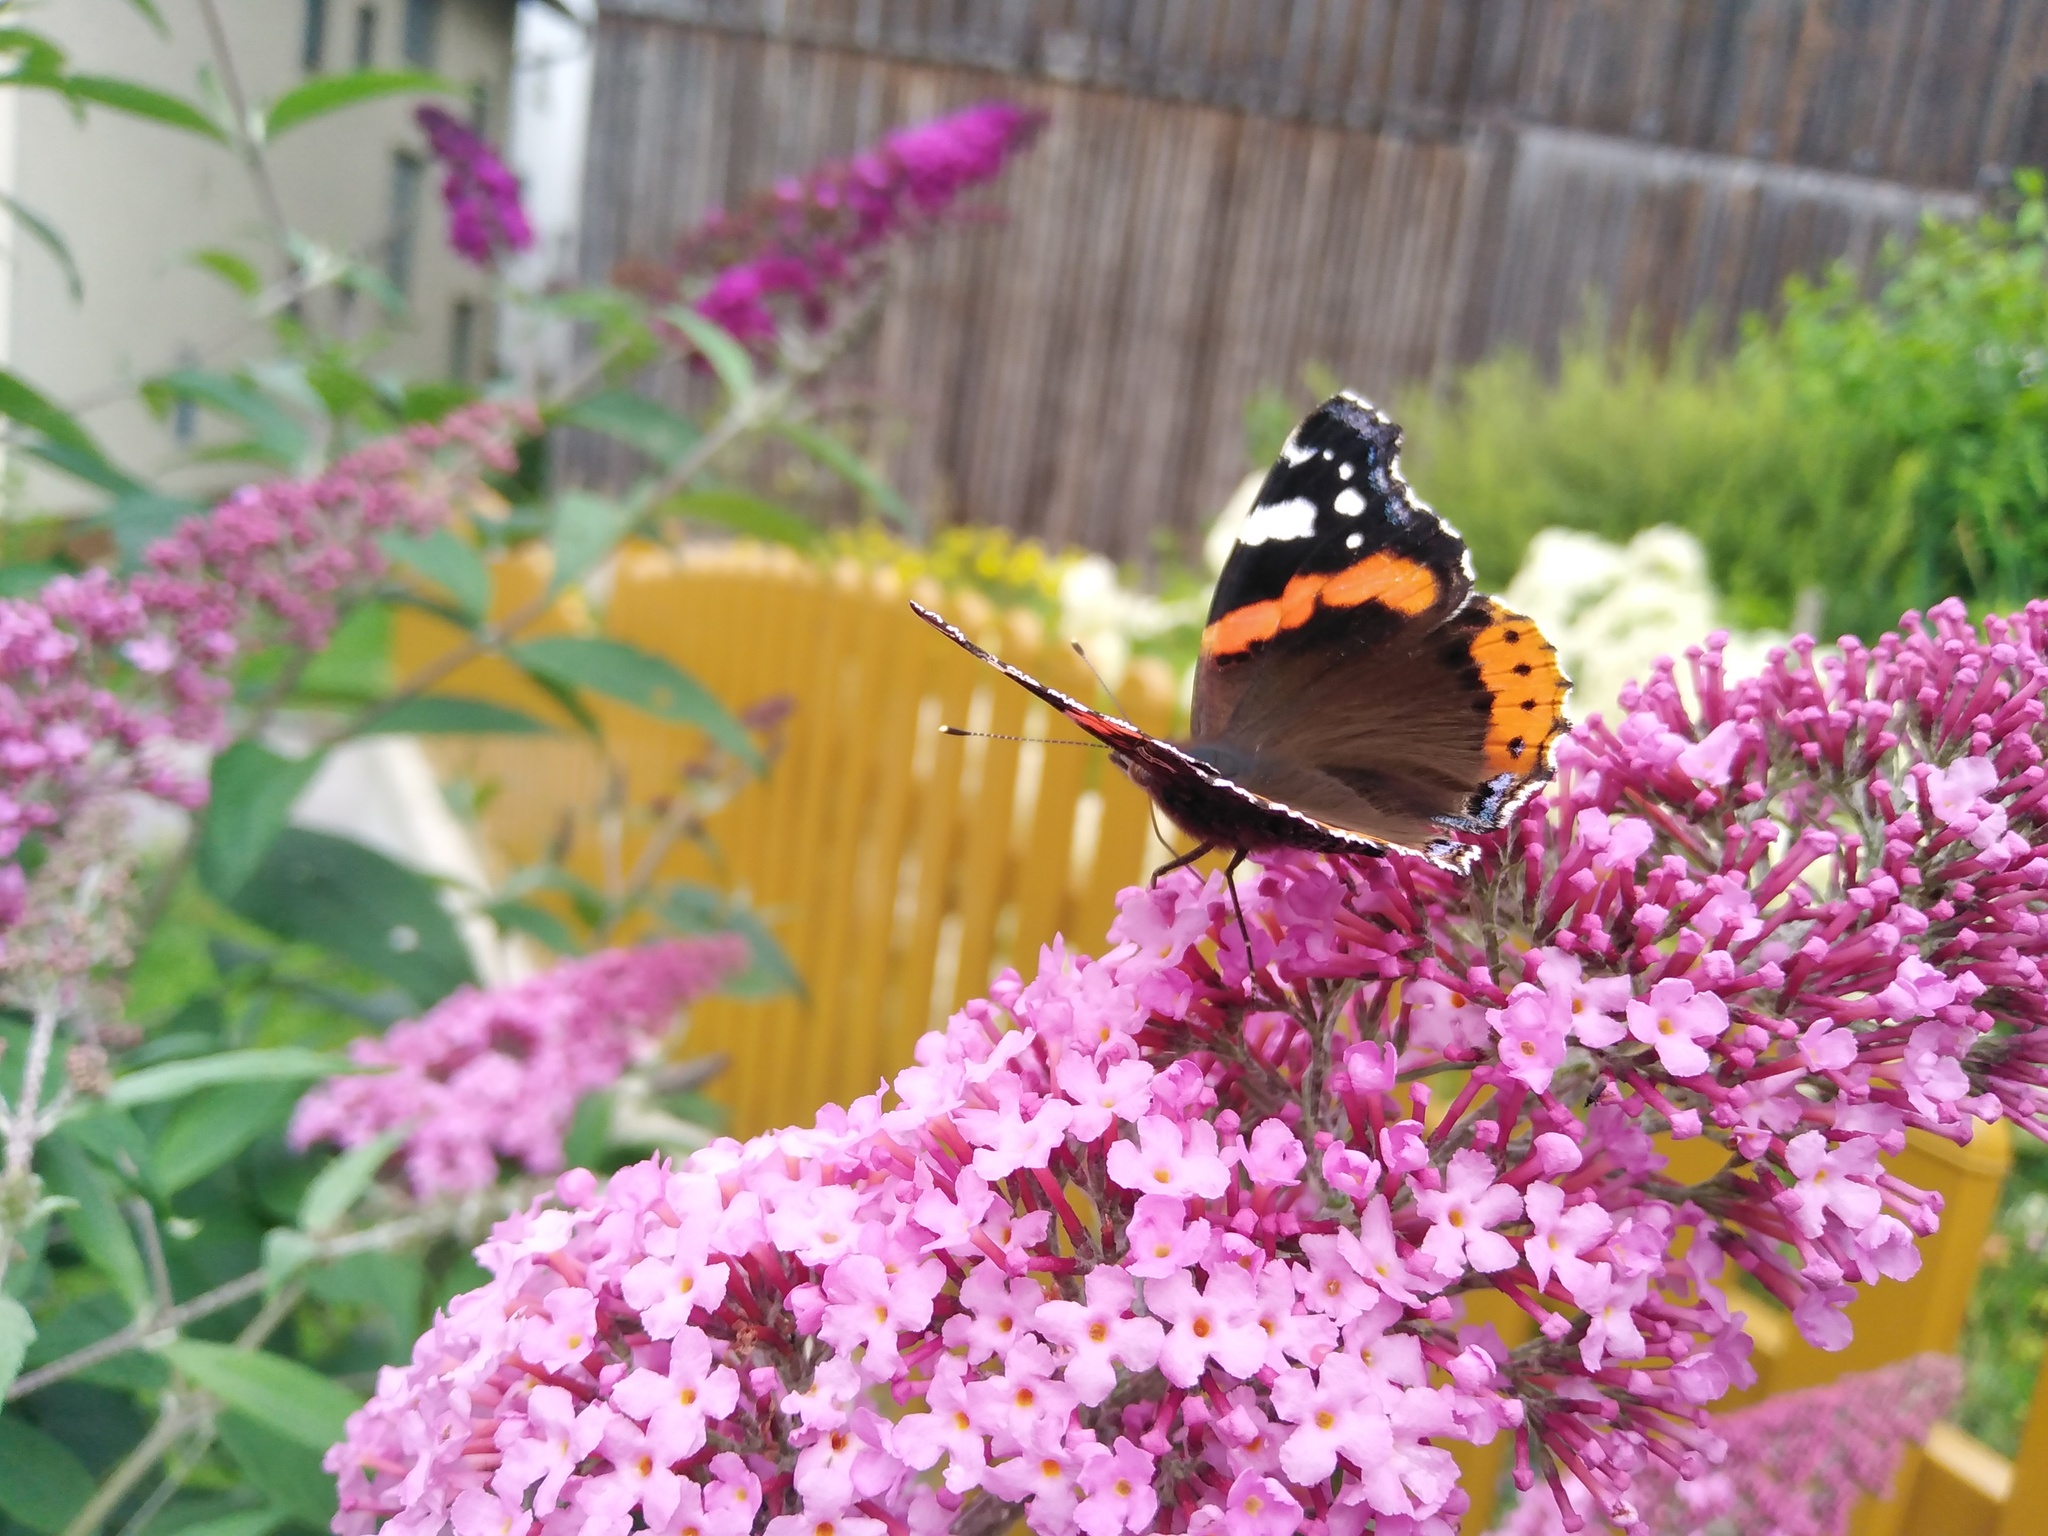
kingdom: Animalia
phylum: Arthropoda
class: Insecta
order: Lepidoptera
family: Nymphalidae
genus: Vanessa
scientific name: Vanessa atalanta
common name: Red admiral
